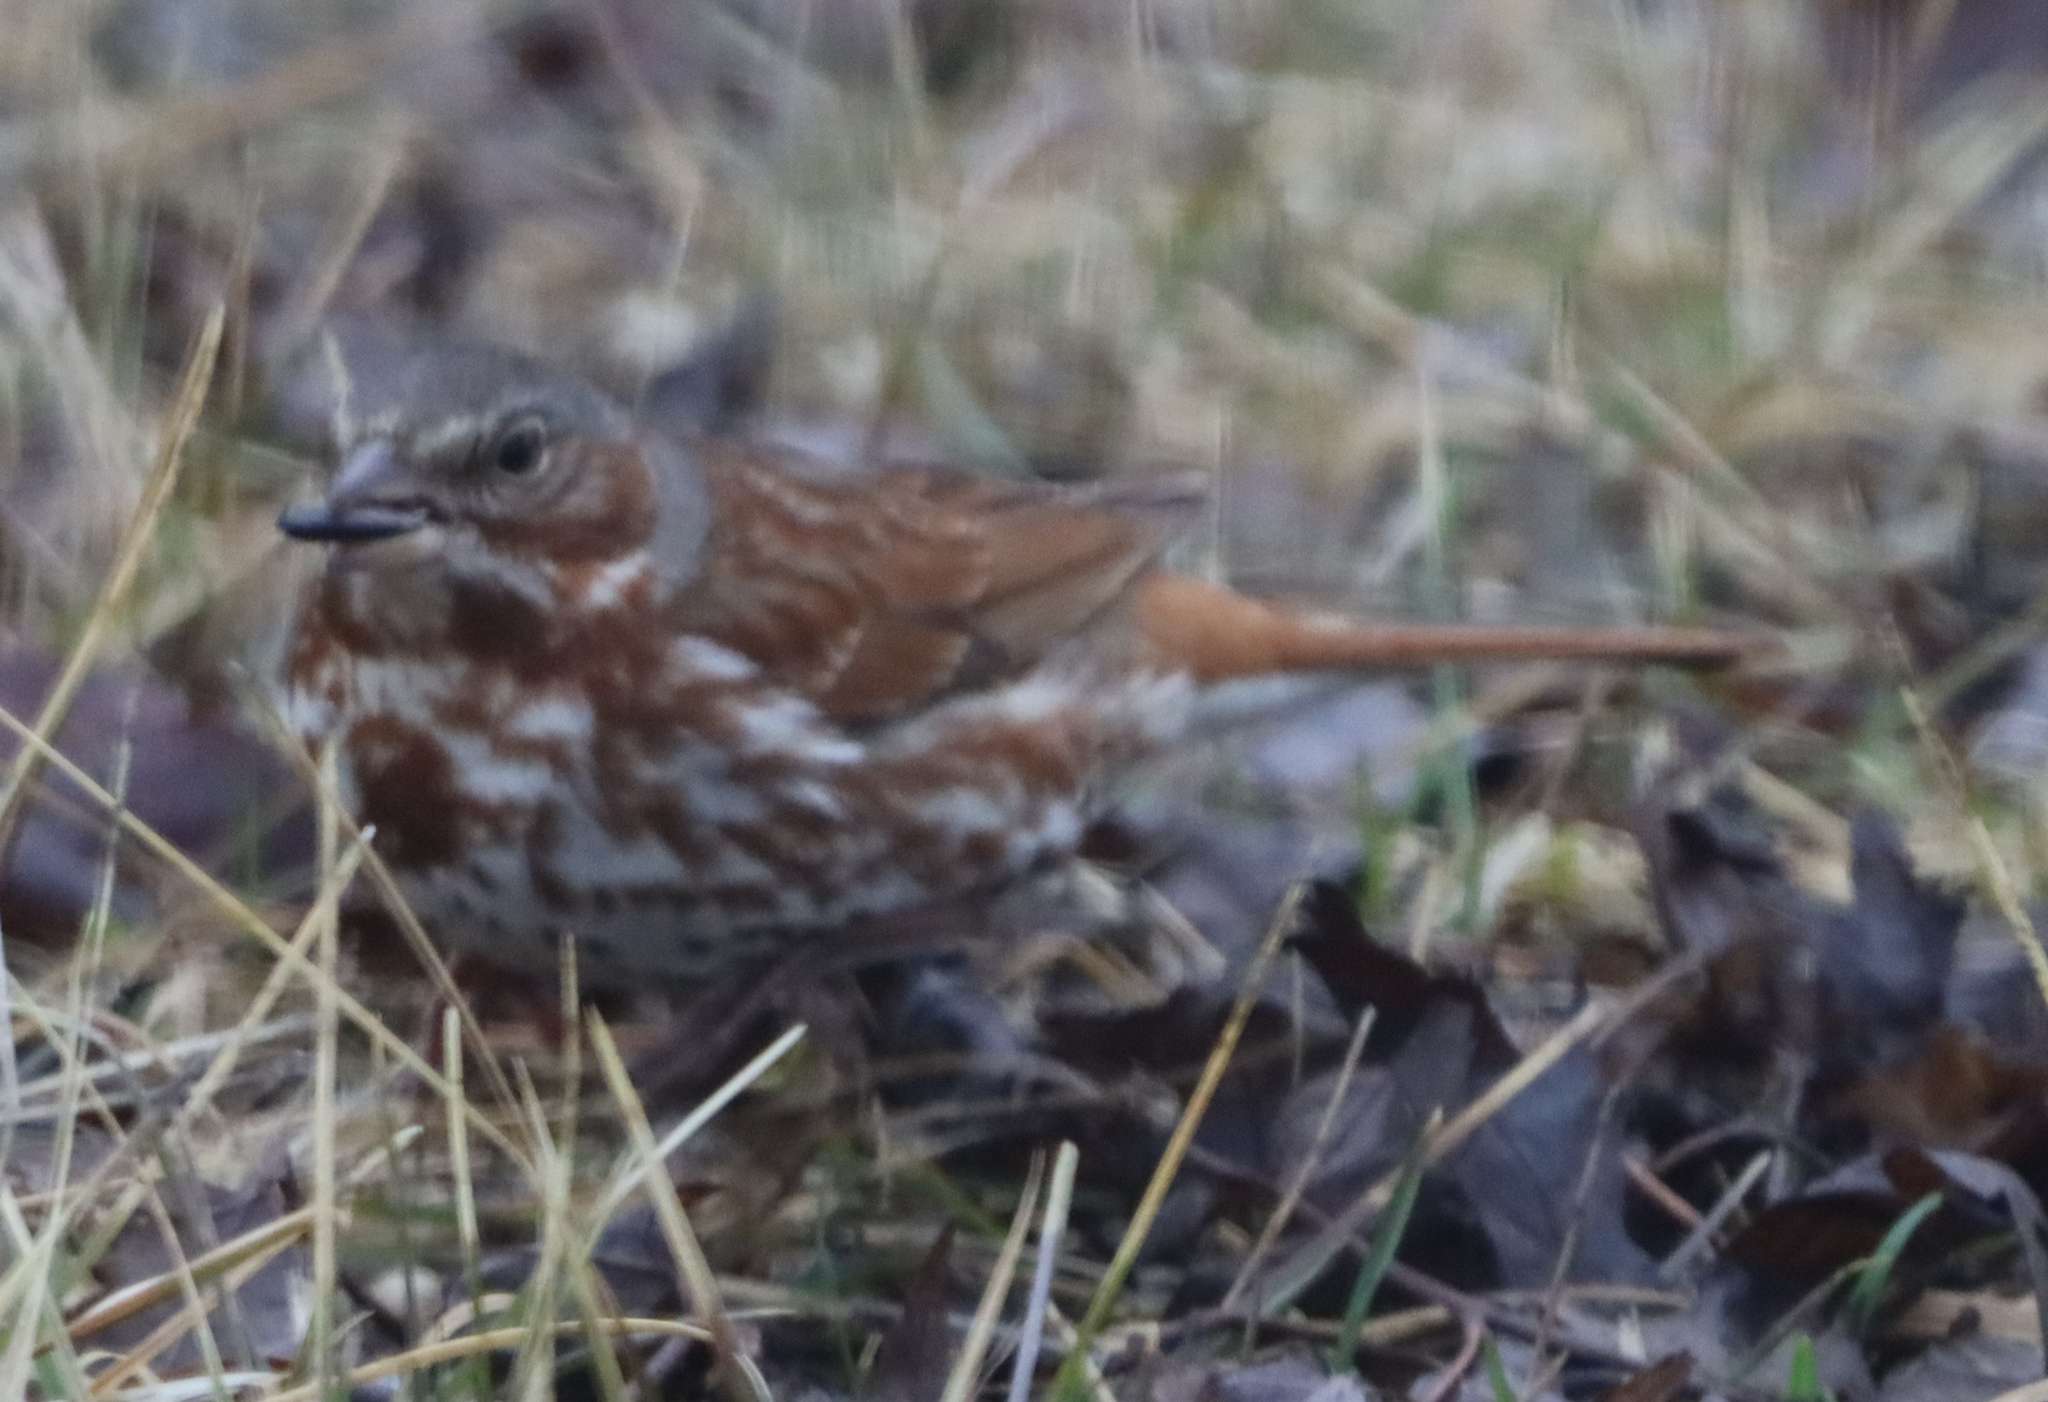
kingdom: Animalia
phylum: Chordata
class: Aves
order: Passeriformes
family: Passerellidae
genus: Passerella
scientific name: Passerella iliaca
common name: Fox sparrow
